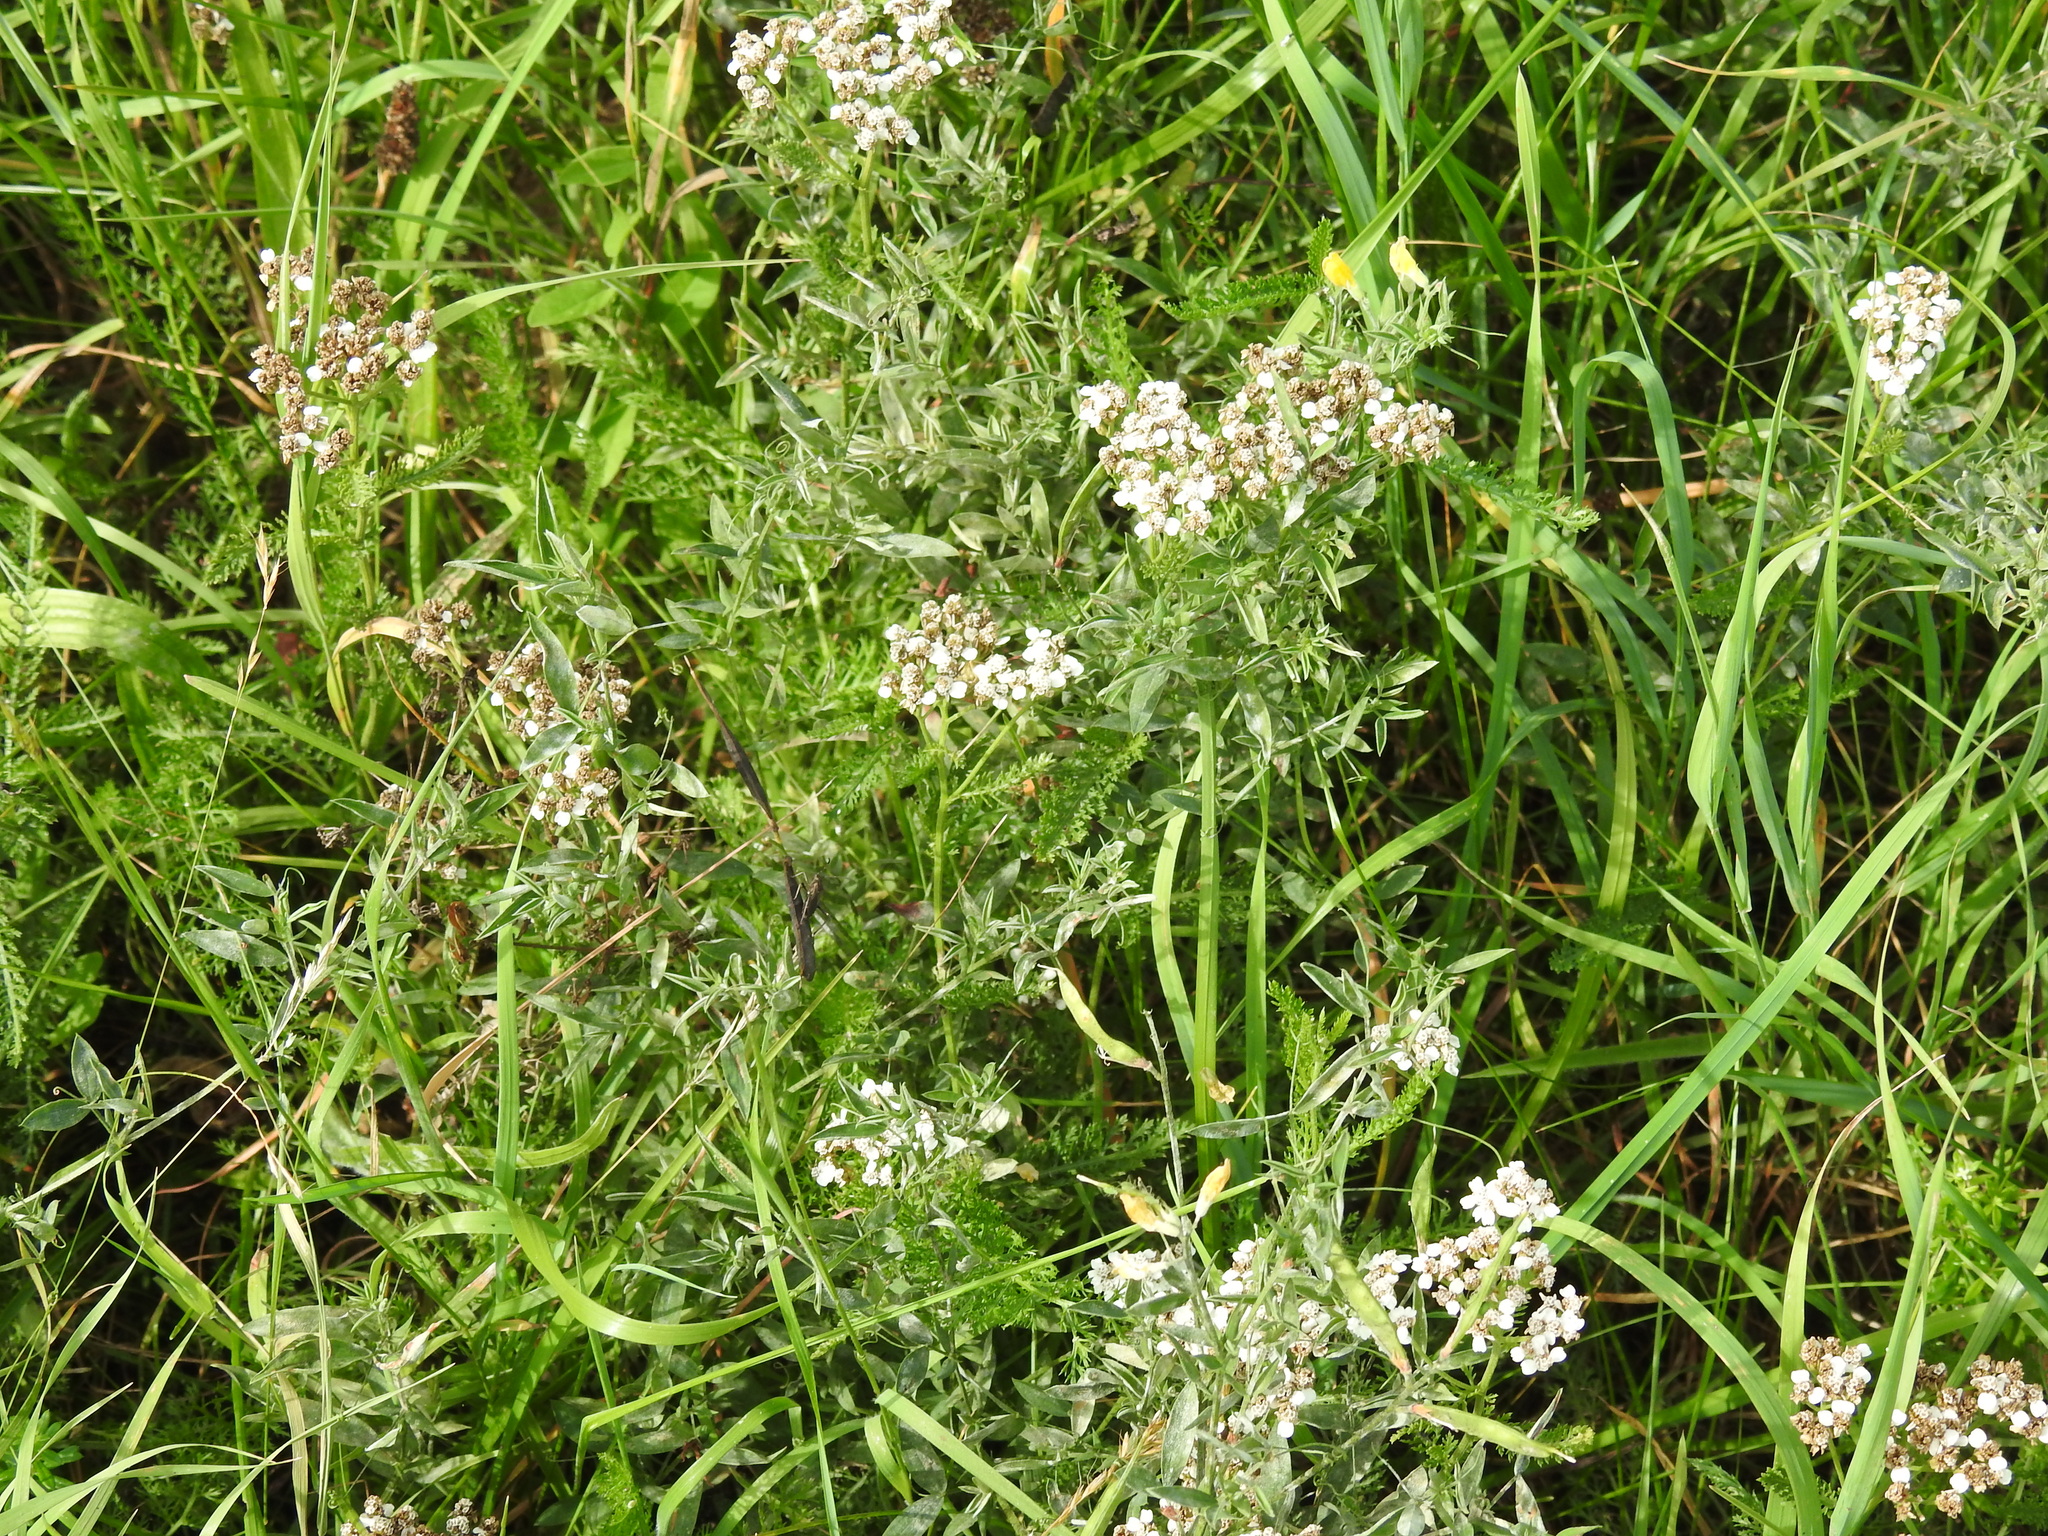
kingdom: Plantae
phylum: Tracheophyta
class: Magnoliopsida
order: Asterales
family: Asteraceae
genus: Achillea
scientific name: Achillea millefolium
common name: Yarrow
